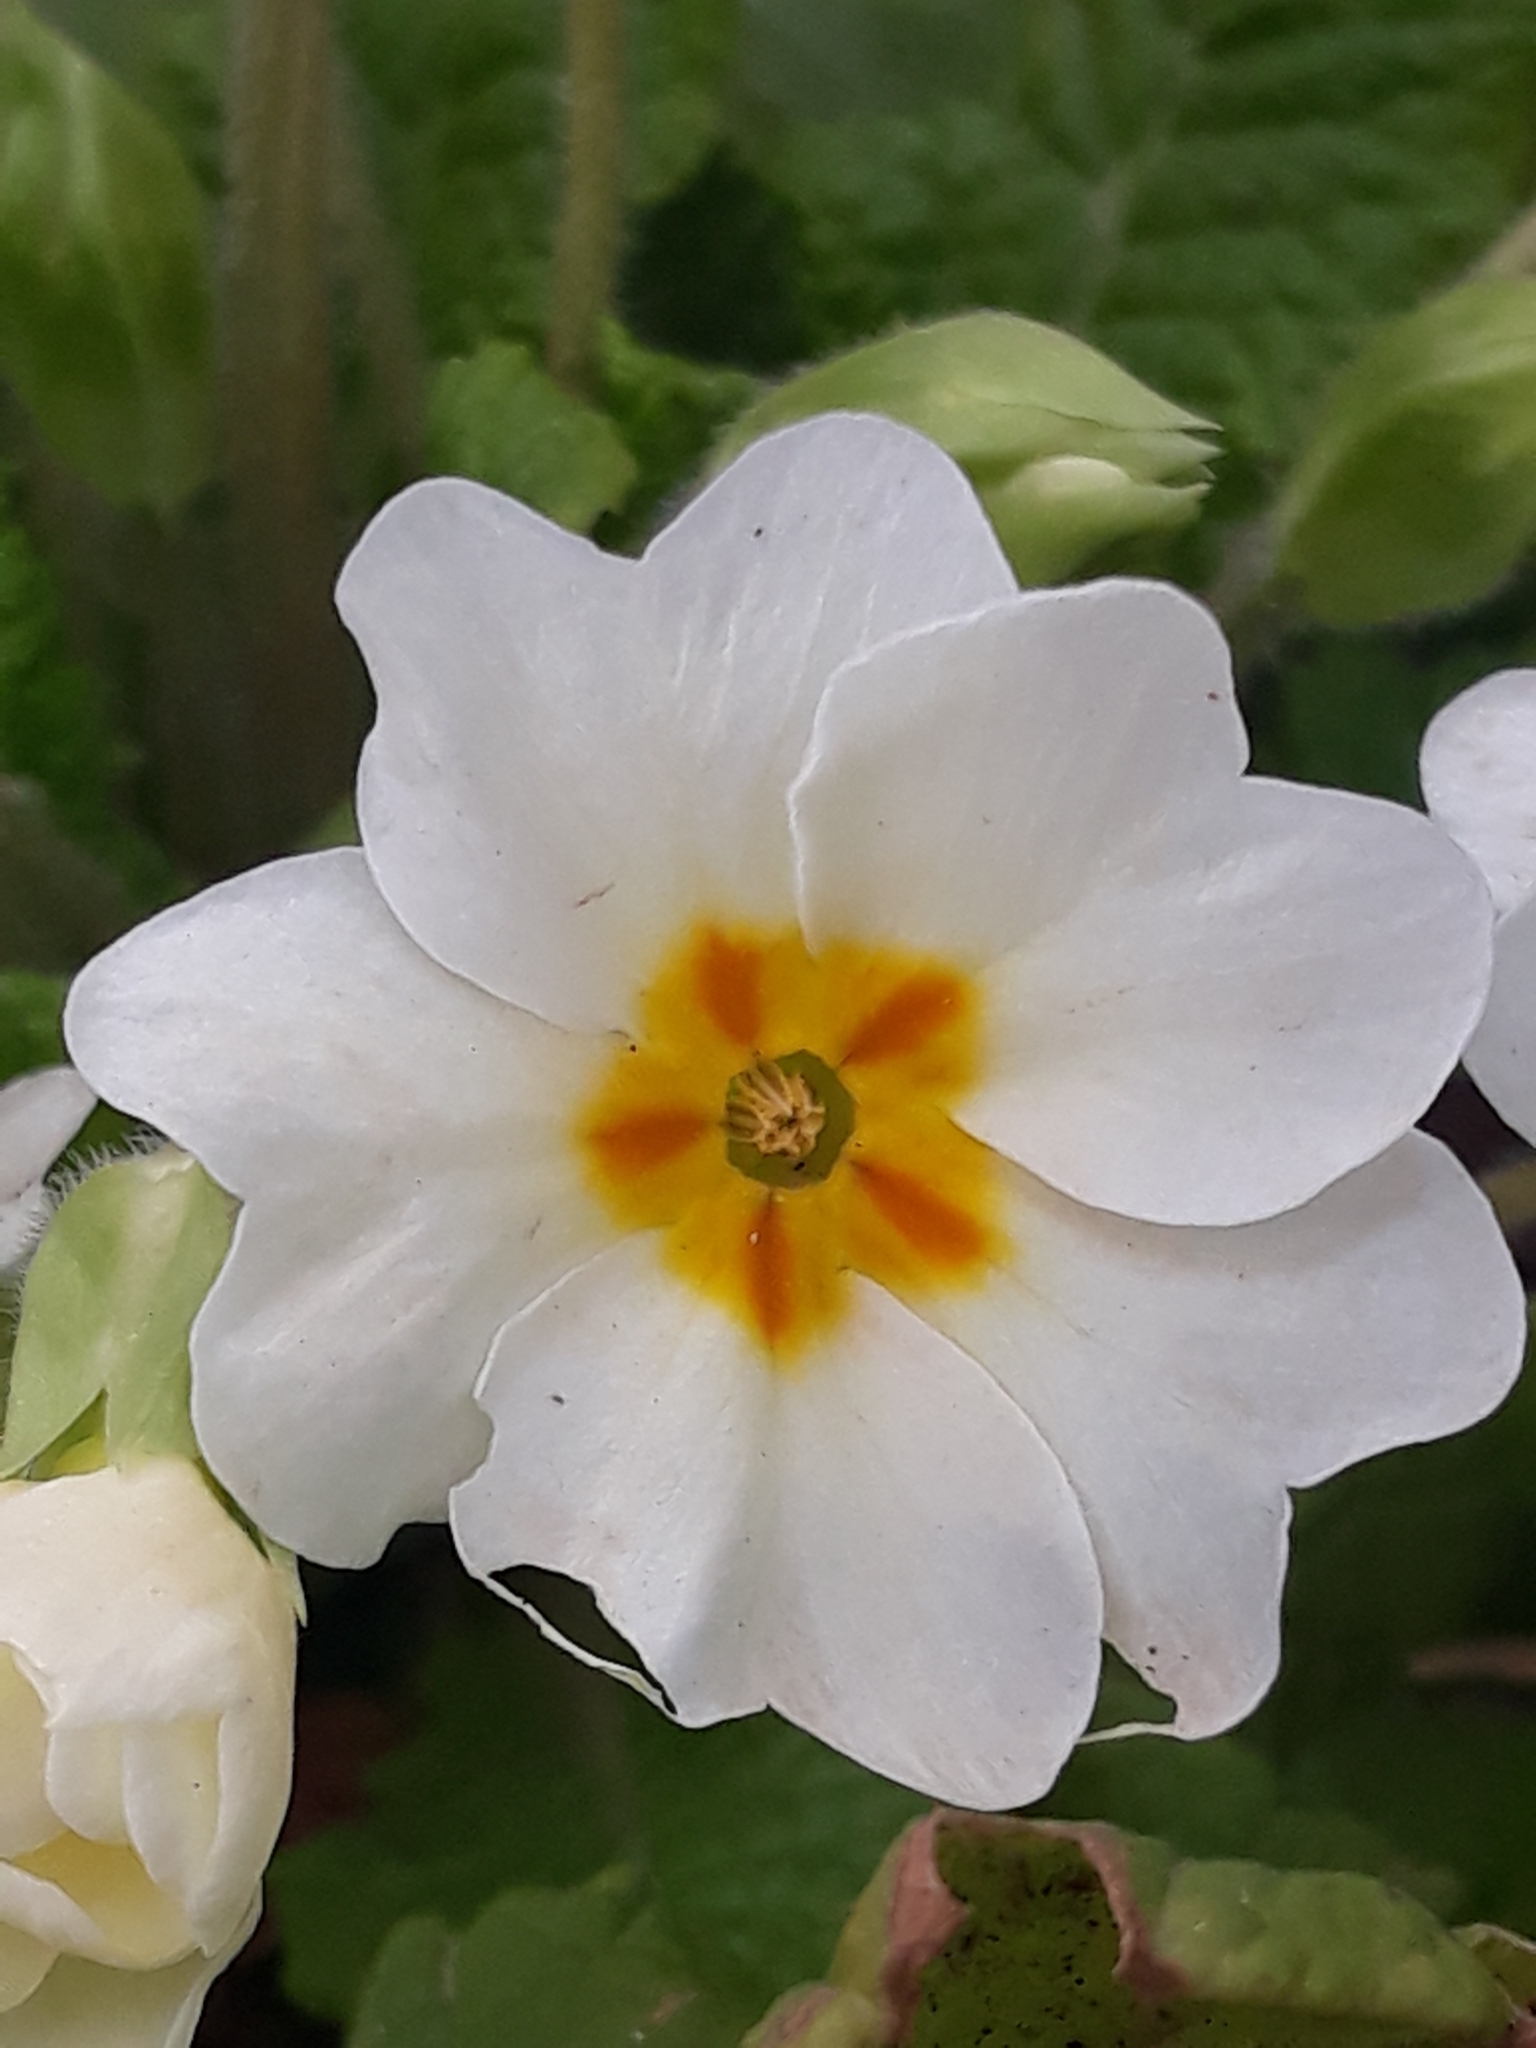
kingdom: Plantae
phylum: Tracheophyta
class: Magnoliopsida
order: Ericales
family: Primulaceae
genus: Primula
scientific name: Primula vulgaris
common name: Primrose
